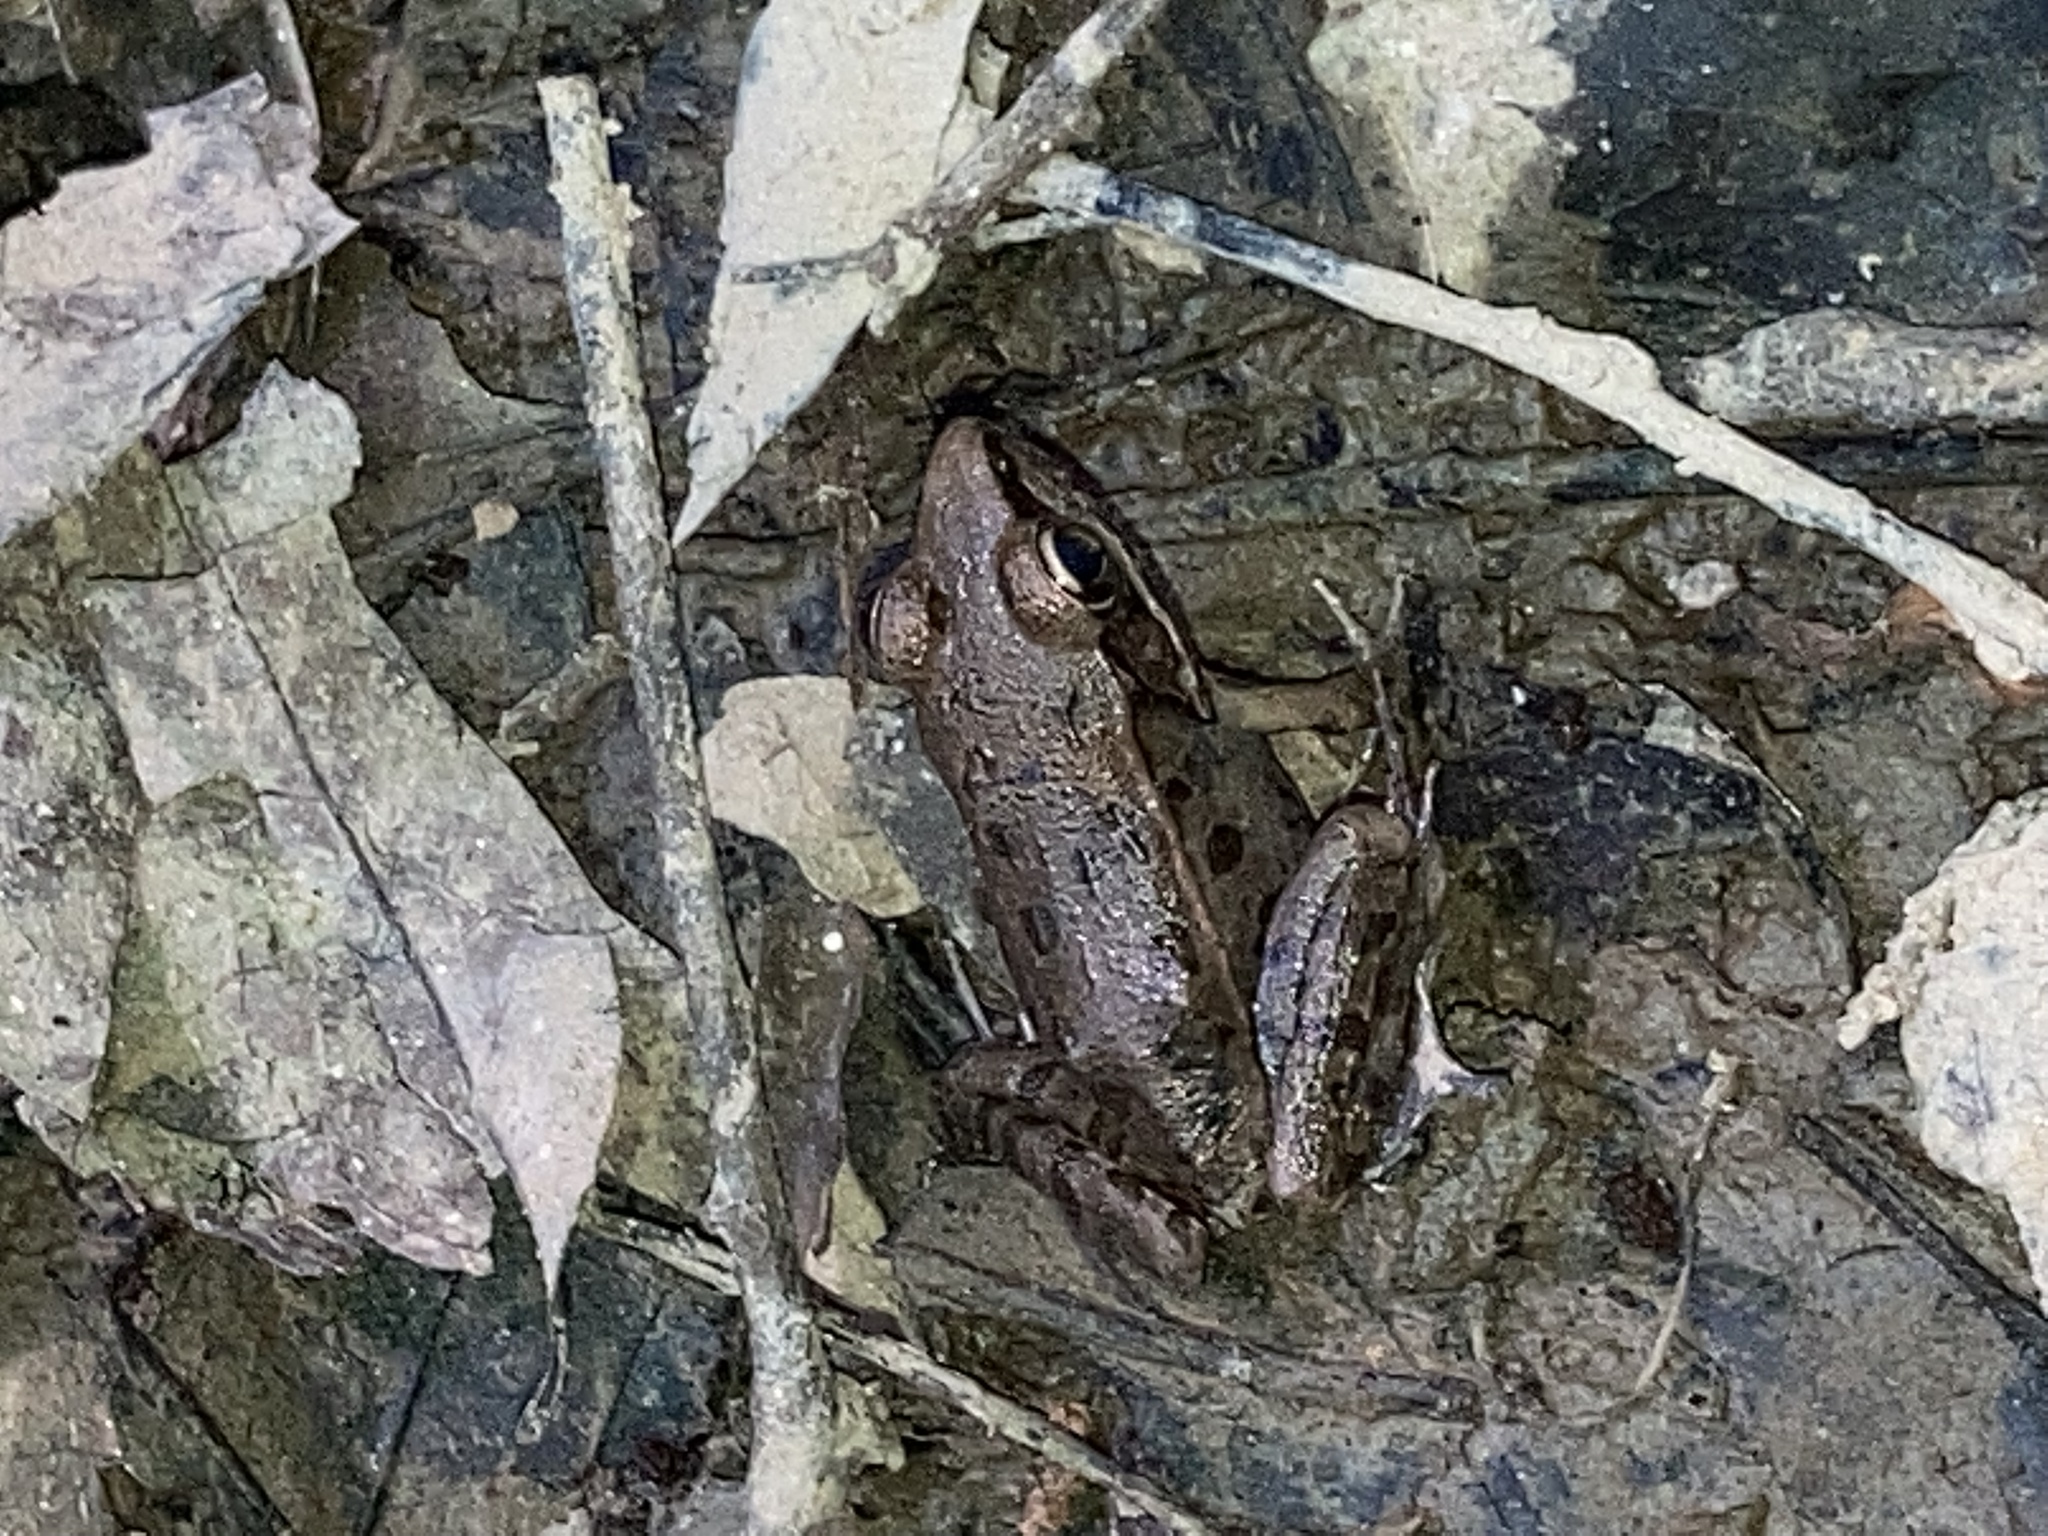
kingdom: Animalia
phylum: Chordata
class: Amphibia
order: Anura
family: Ranidae
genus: Lithobates
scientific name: Lithobates sphenocephalus
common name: Southern leopard frog
